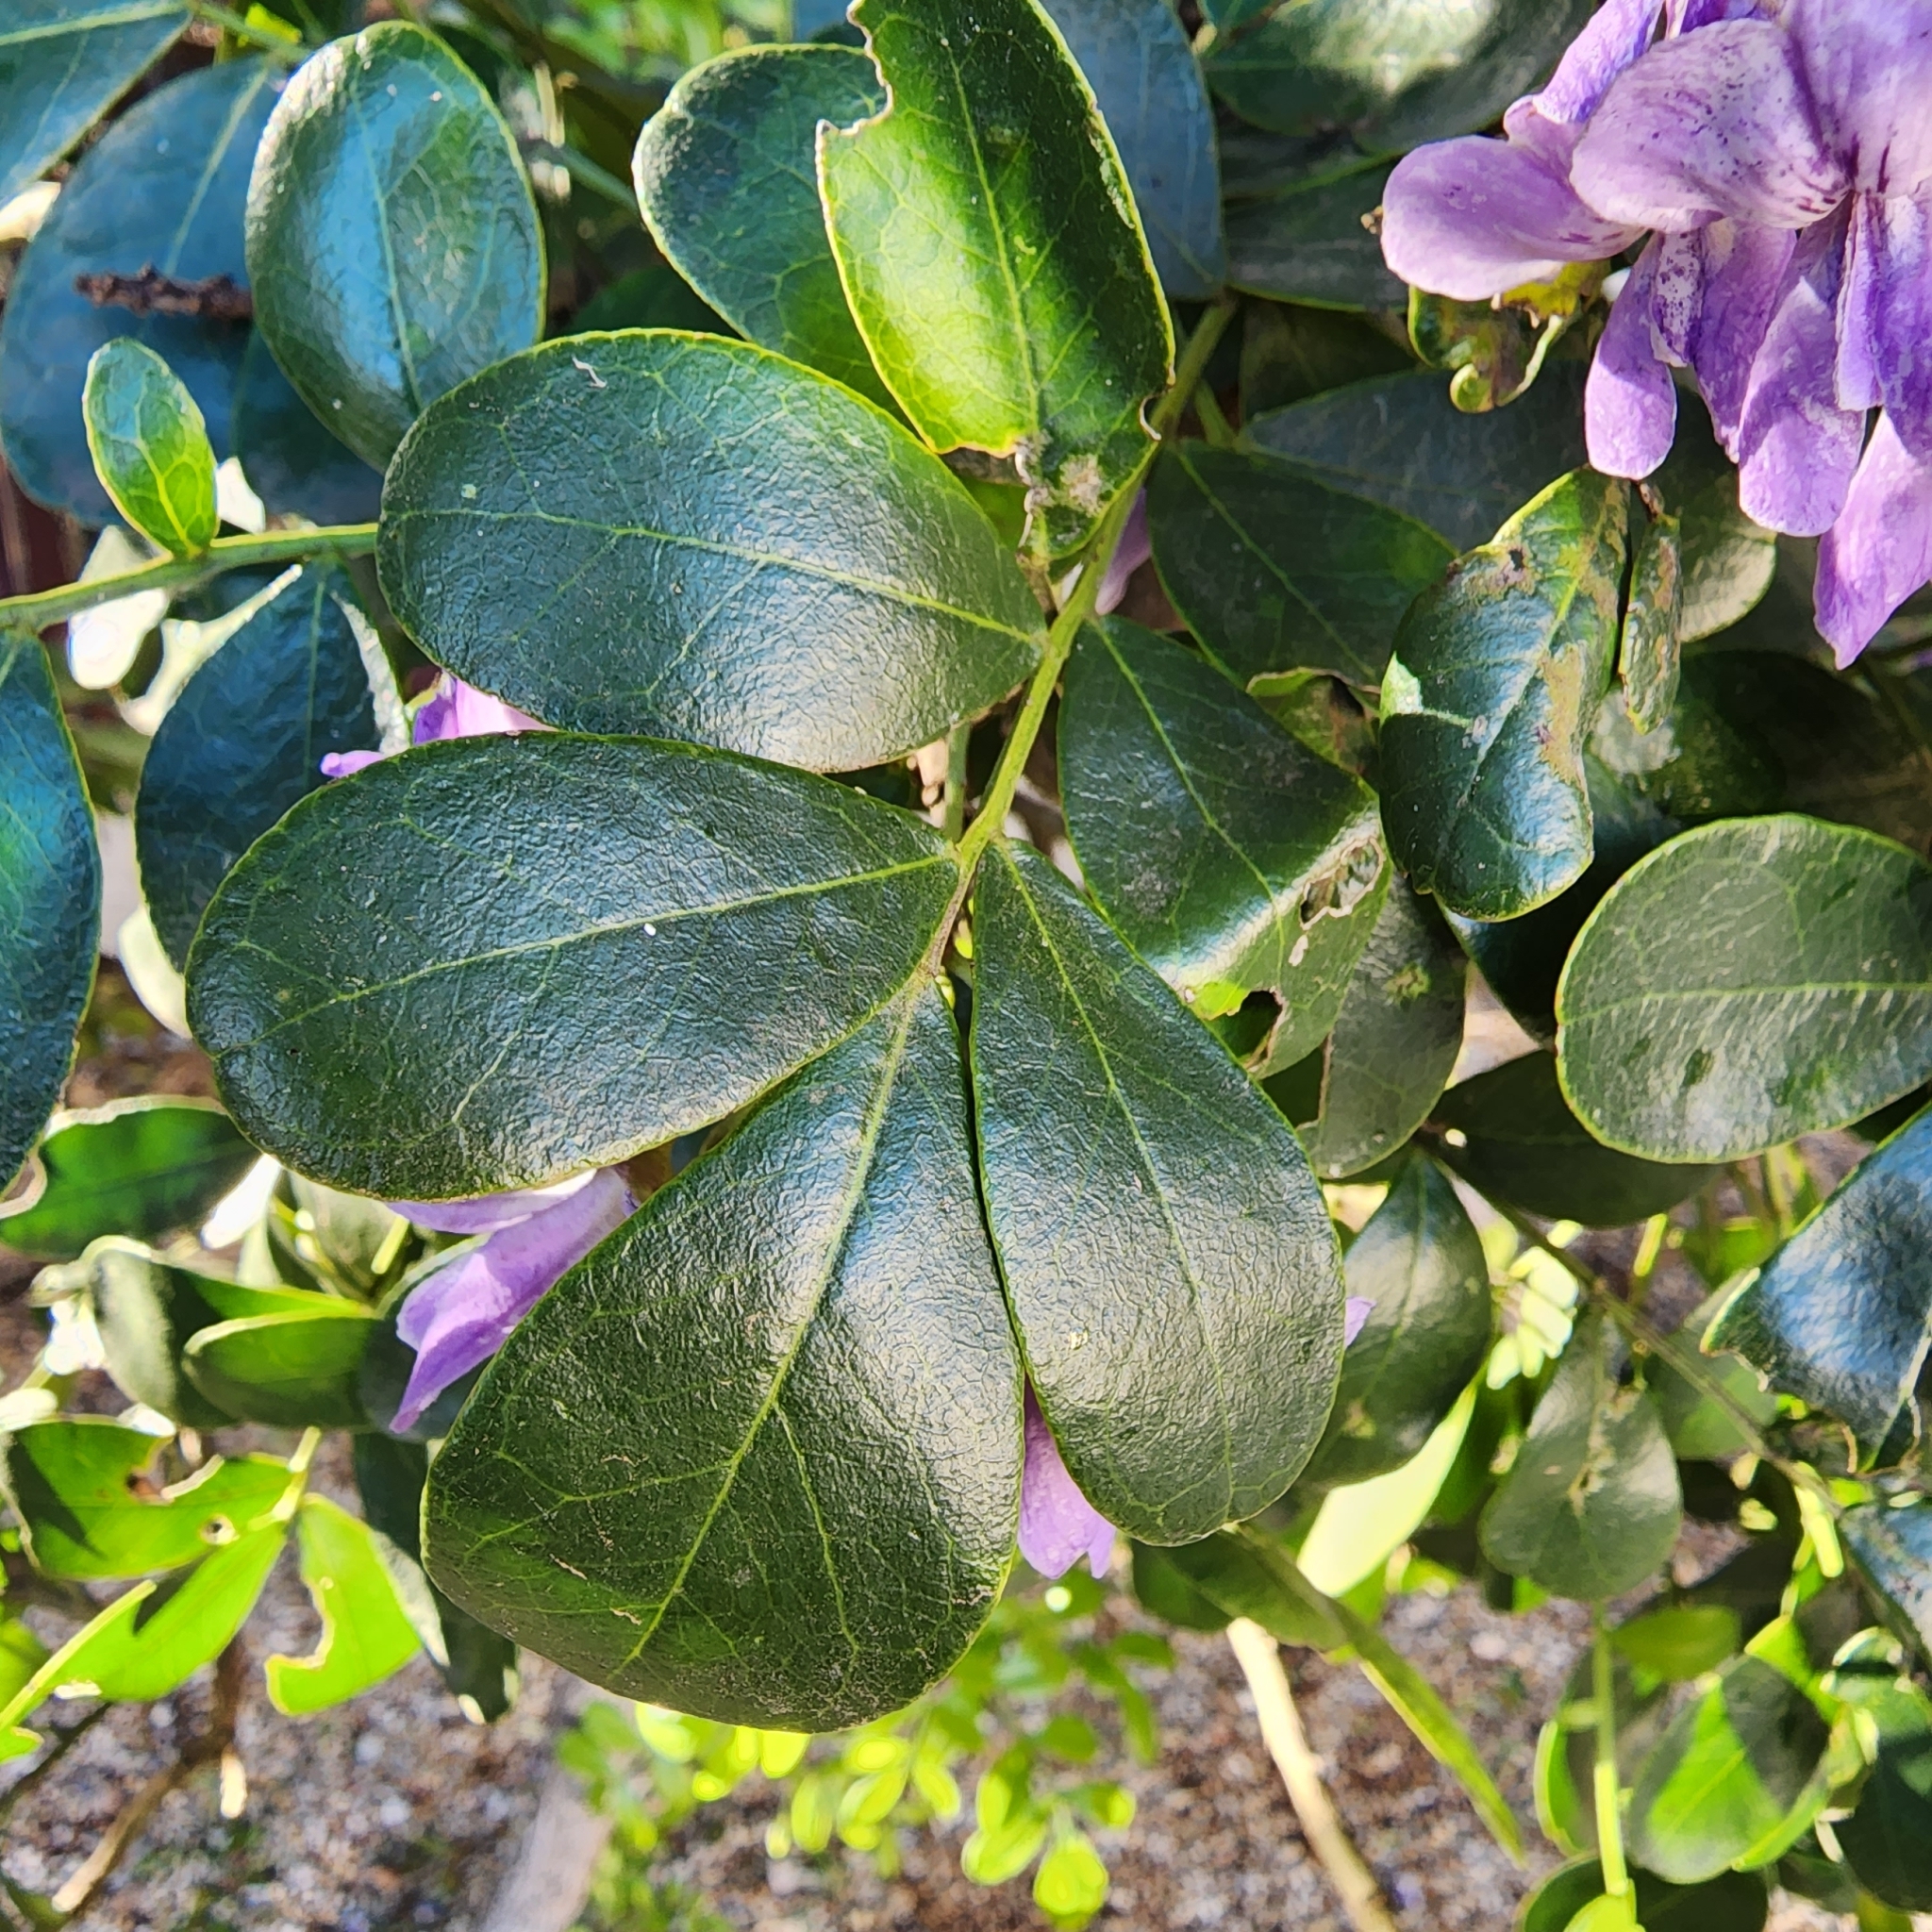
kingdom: Plantae
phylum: Tracheophyta
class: Magnoliopsida
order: Fabales
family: Fabaceae
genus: Dermatophyllum
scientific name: Dermatophyllum secundiflorum
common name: Texas-mountain-laurel
